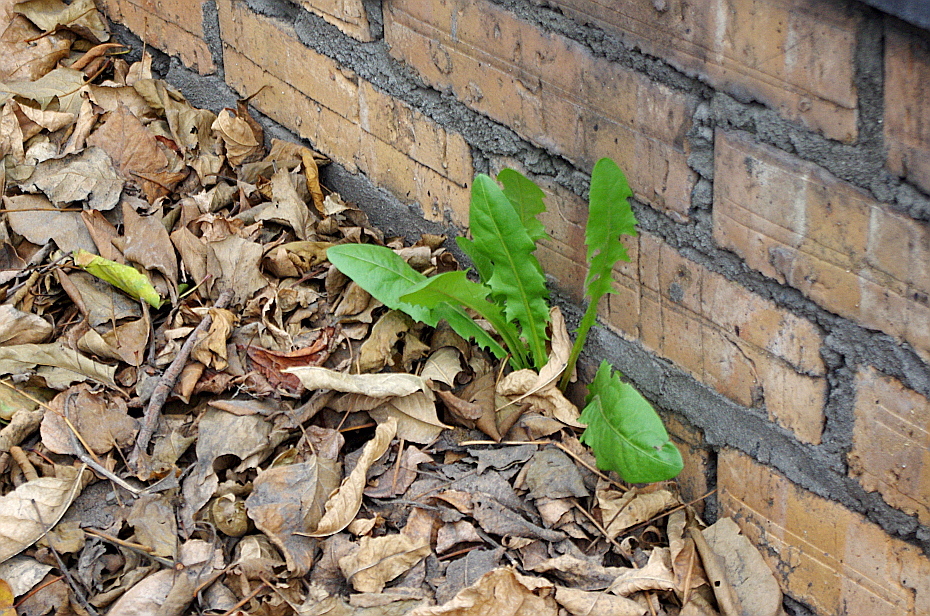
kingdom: Plantae
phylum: Tracheophyta
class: Magnoliopsida
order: Asterales
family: Asteraceae
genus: Taraxacum
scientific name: Taraxacum officinale
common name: Common dandelion
